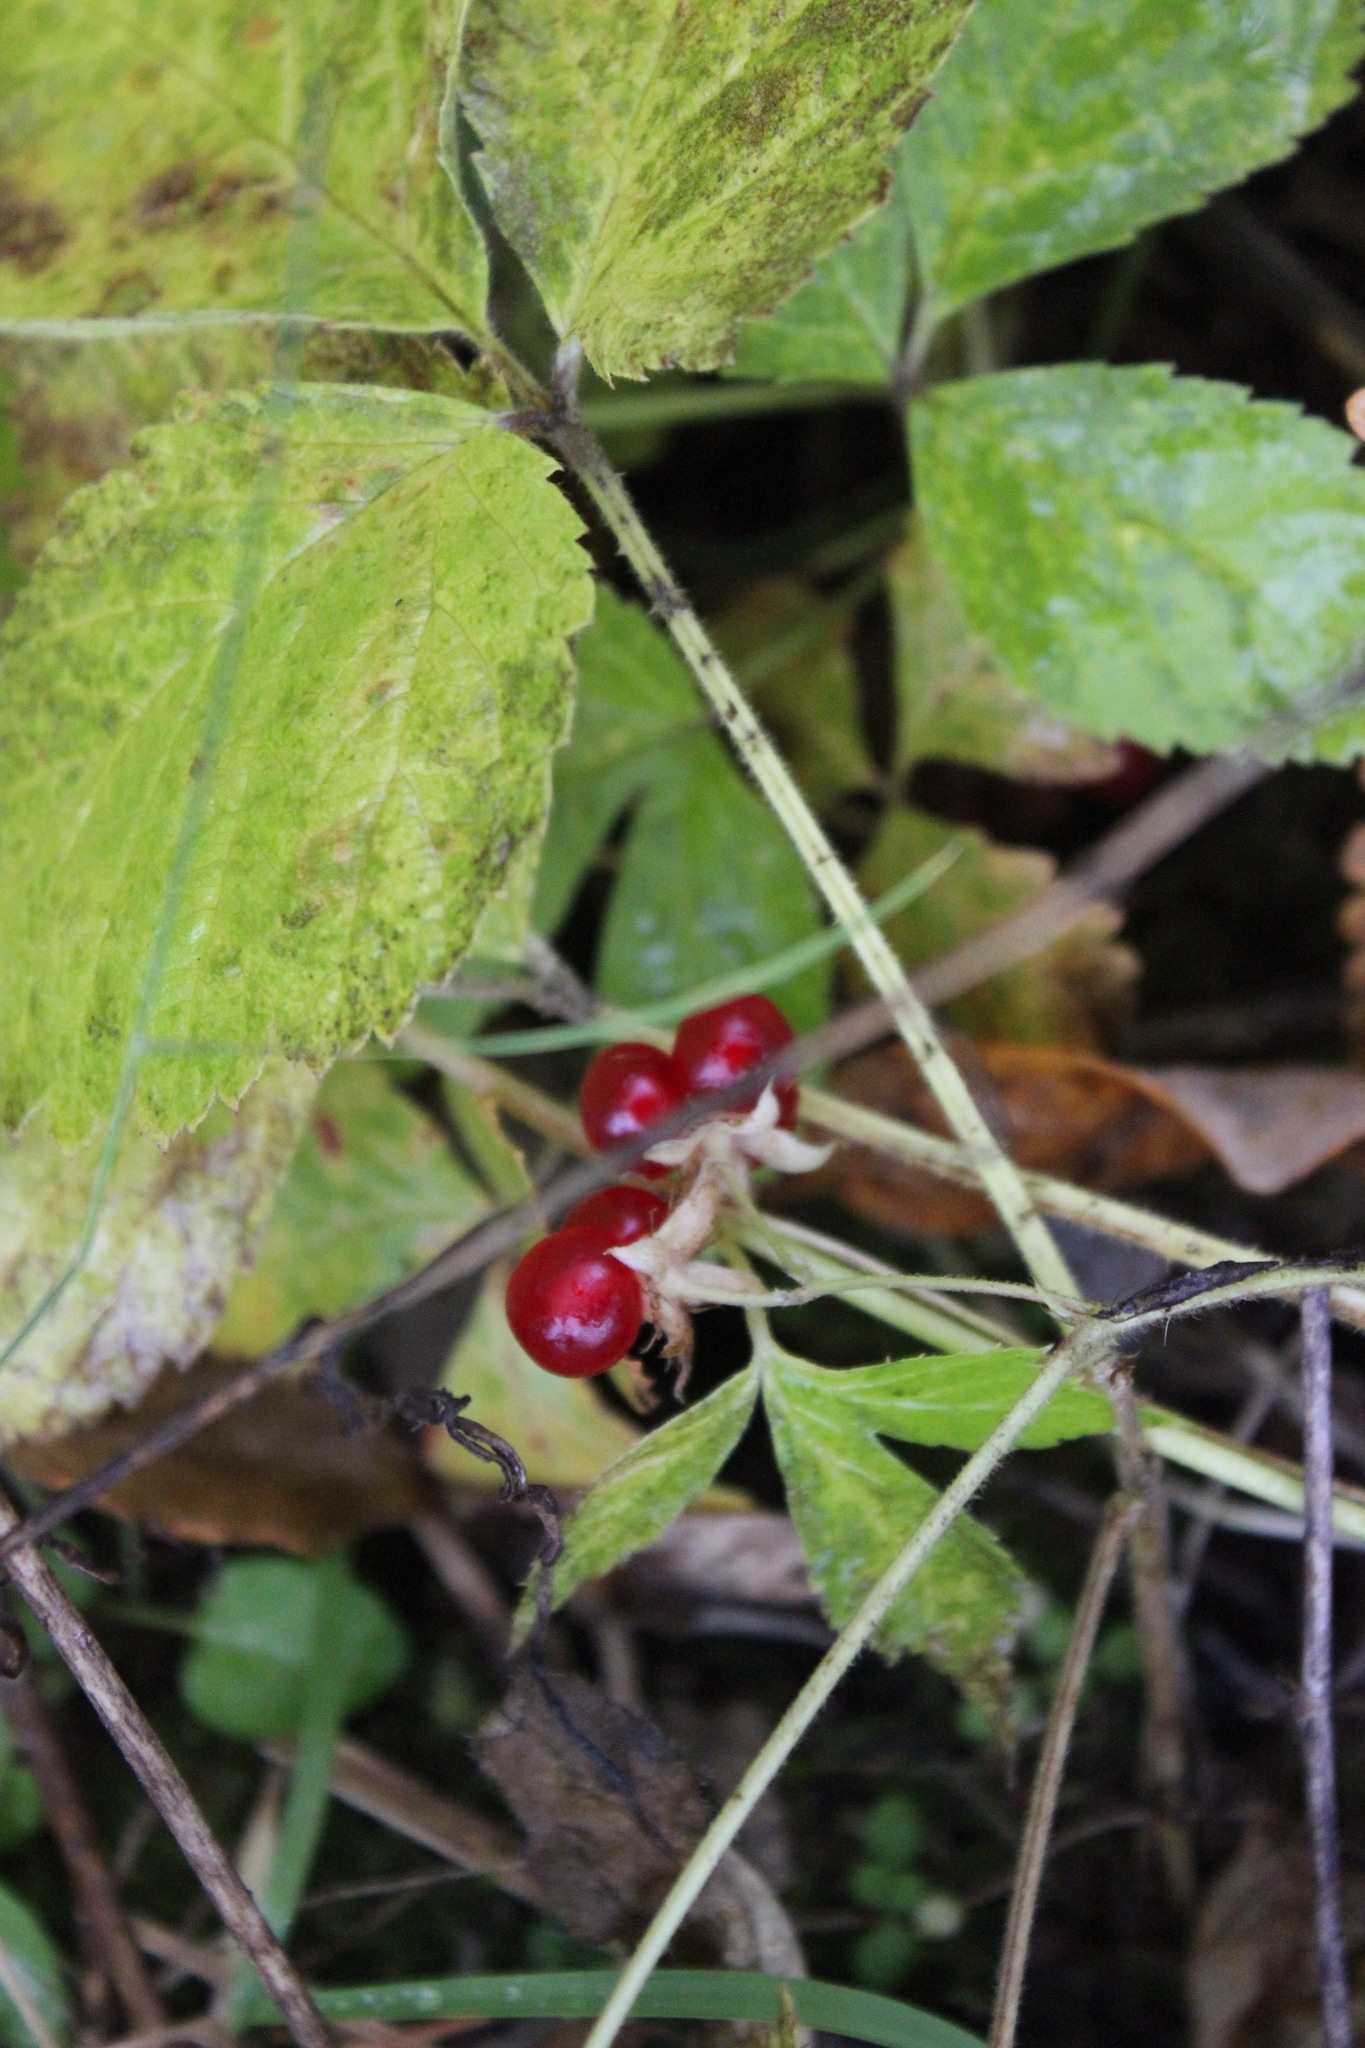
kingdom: Plantae
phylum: Tracheophyta
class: Magnoliopsida
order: Rosales
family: Rosaceae
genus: Rubus
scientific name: Rubus saxatilis
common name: Stone bramble
